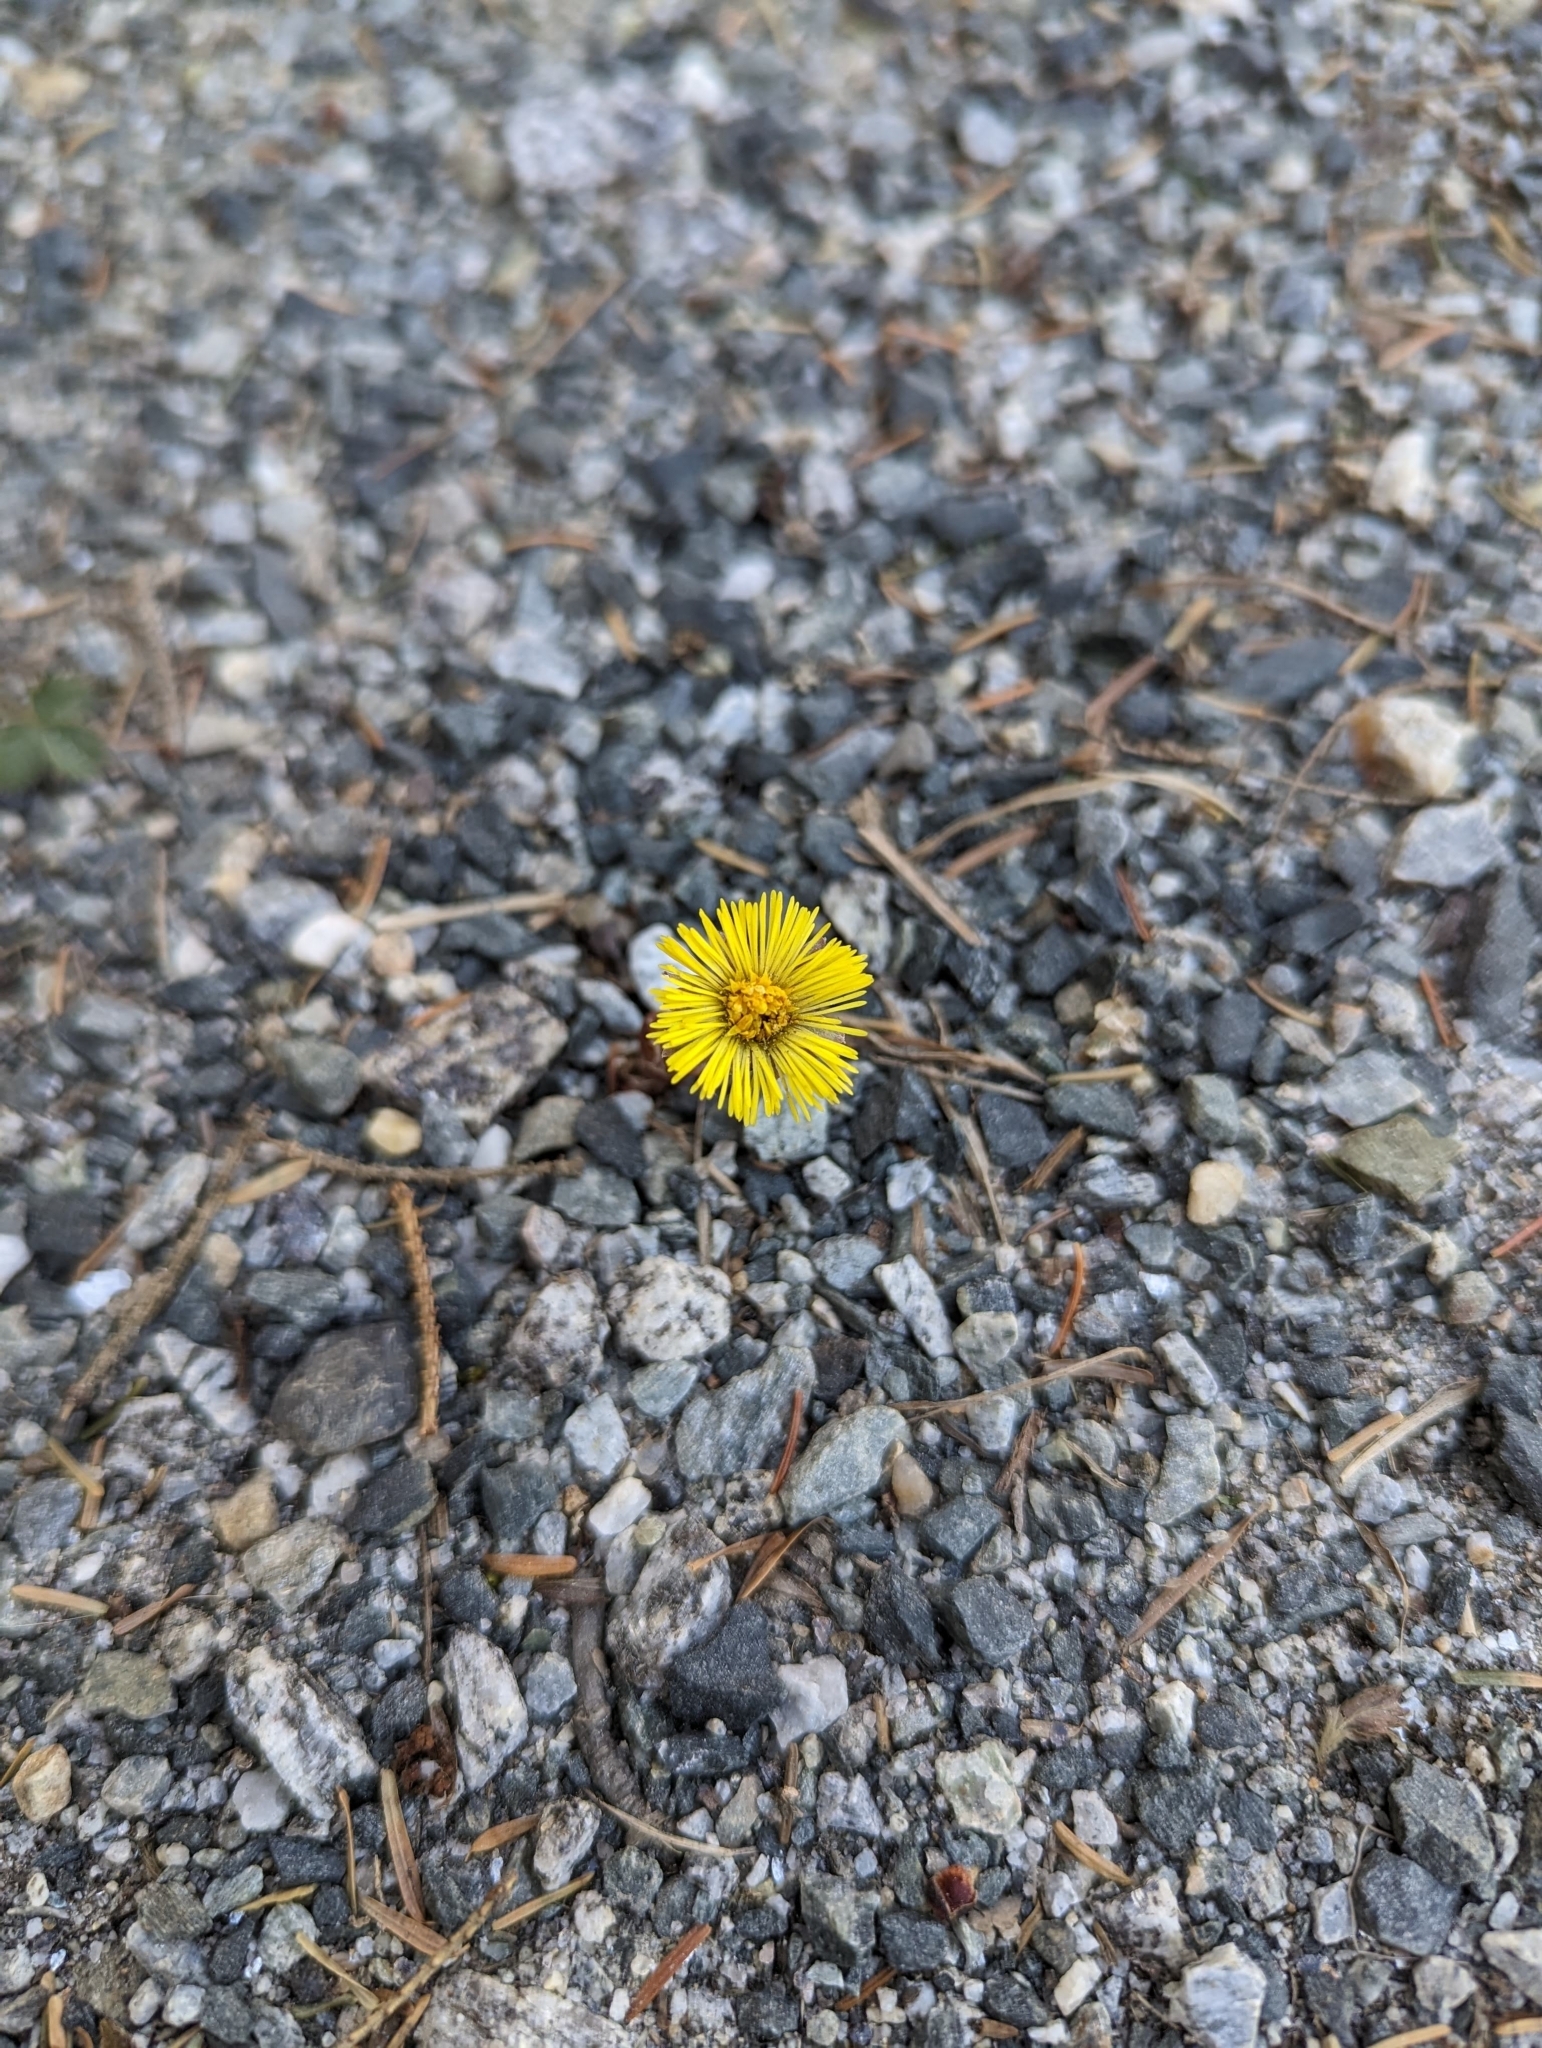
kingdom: Plantae
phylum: Tracheophyta
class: Magnoliopsida
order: Asterales
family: Asteraceae
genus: Tussilago
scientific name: Tussilago farfara
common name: Coltsfoot
